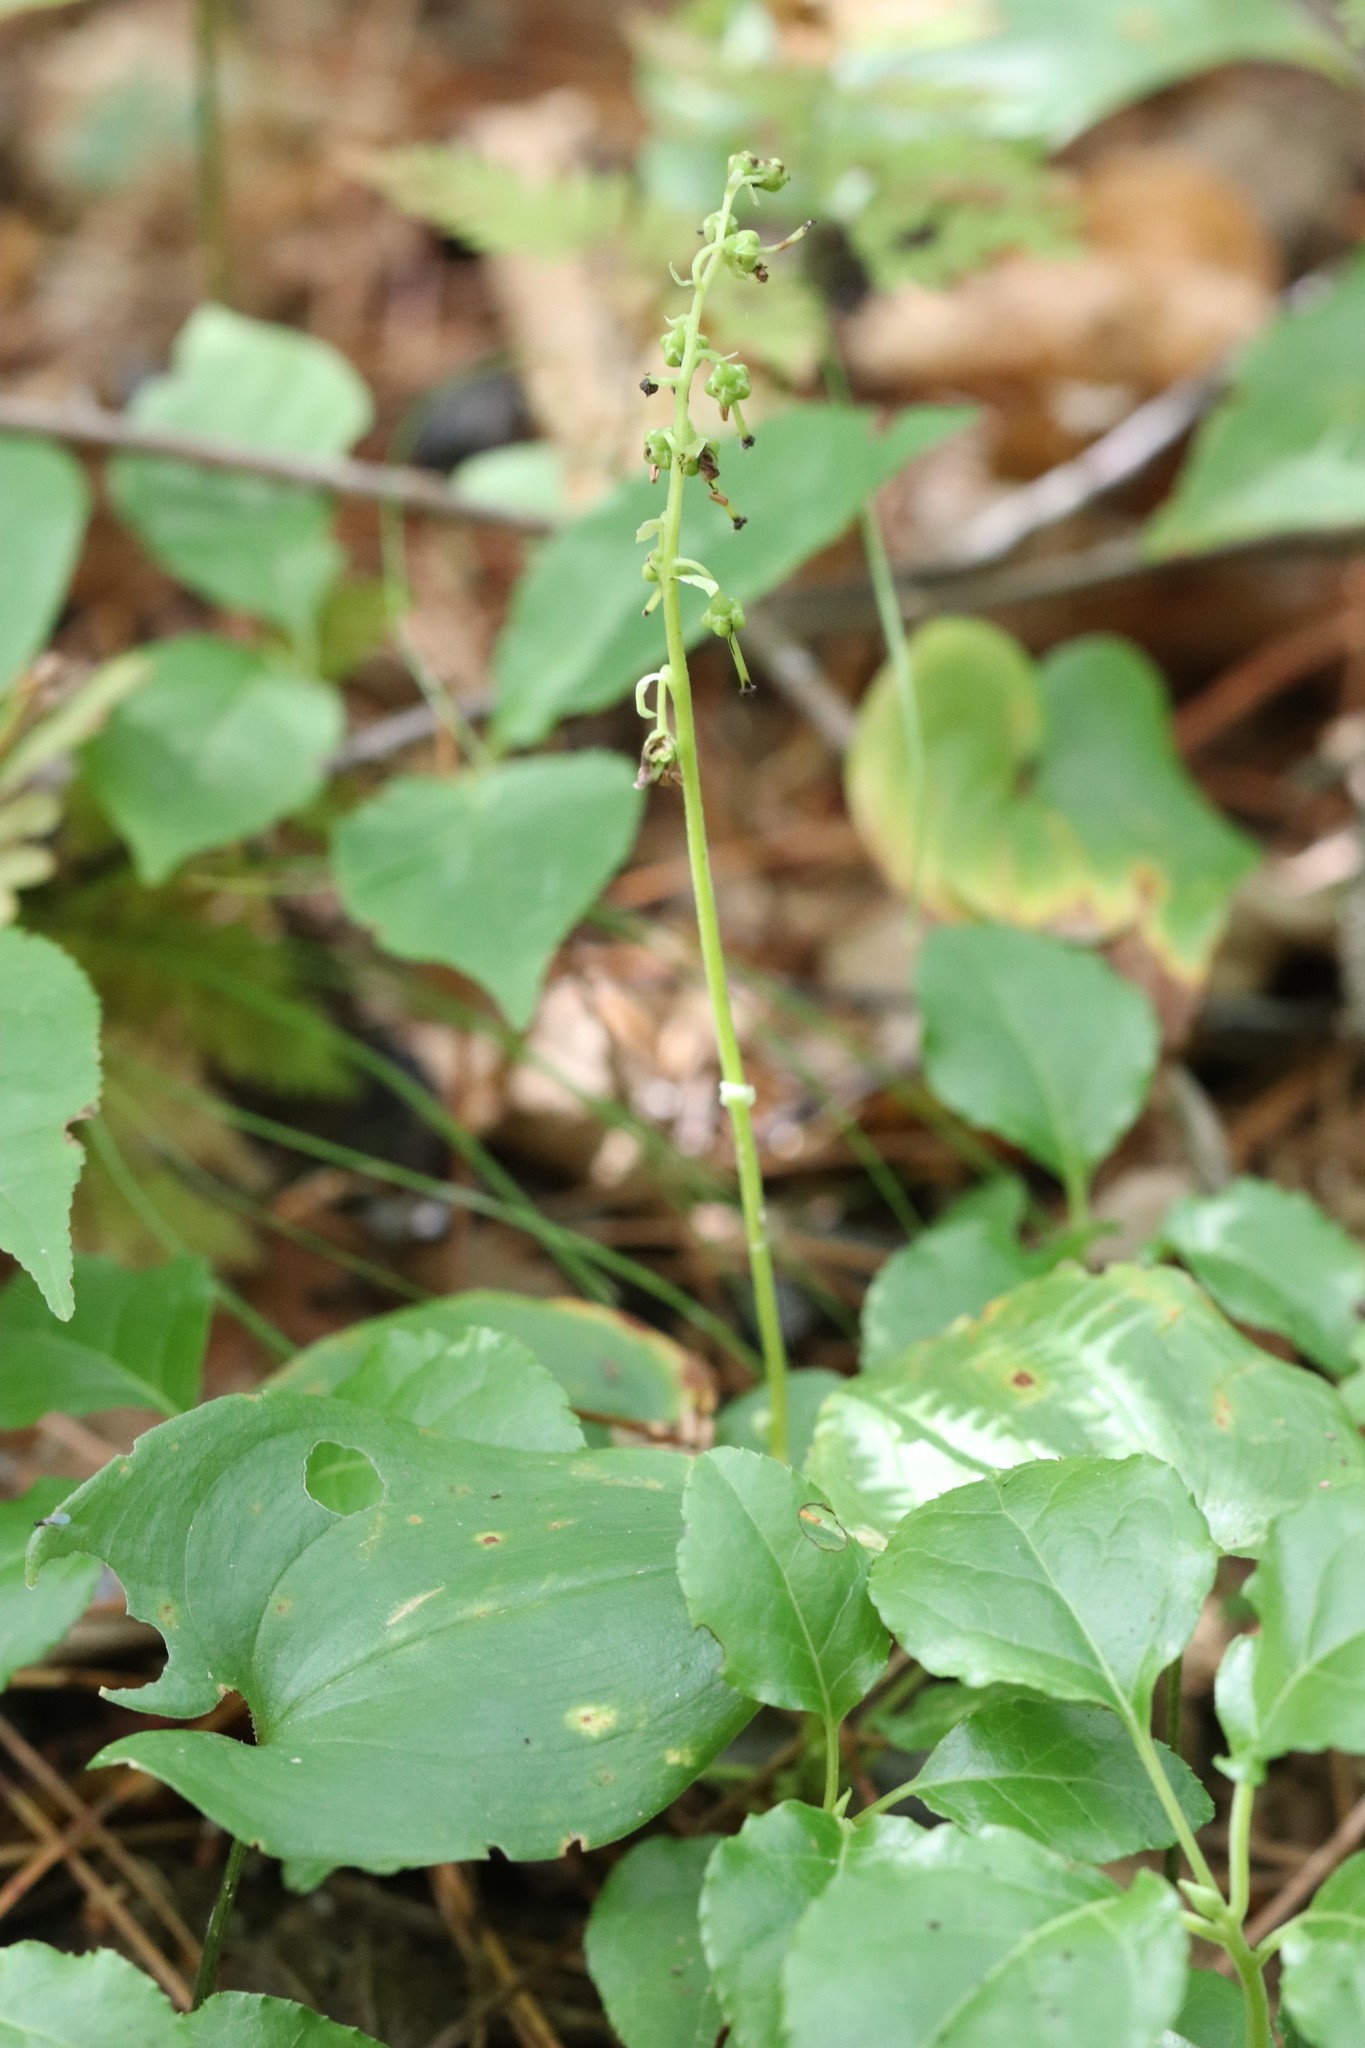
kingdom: Plantae
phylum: Tracheophyta
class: Magnoliopsida
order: Ericales
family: Ericaceae
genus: Orthilia
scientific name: Orthilia secunda
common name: One-sided orthilia
